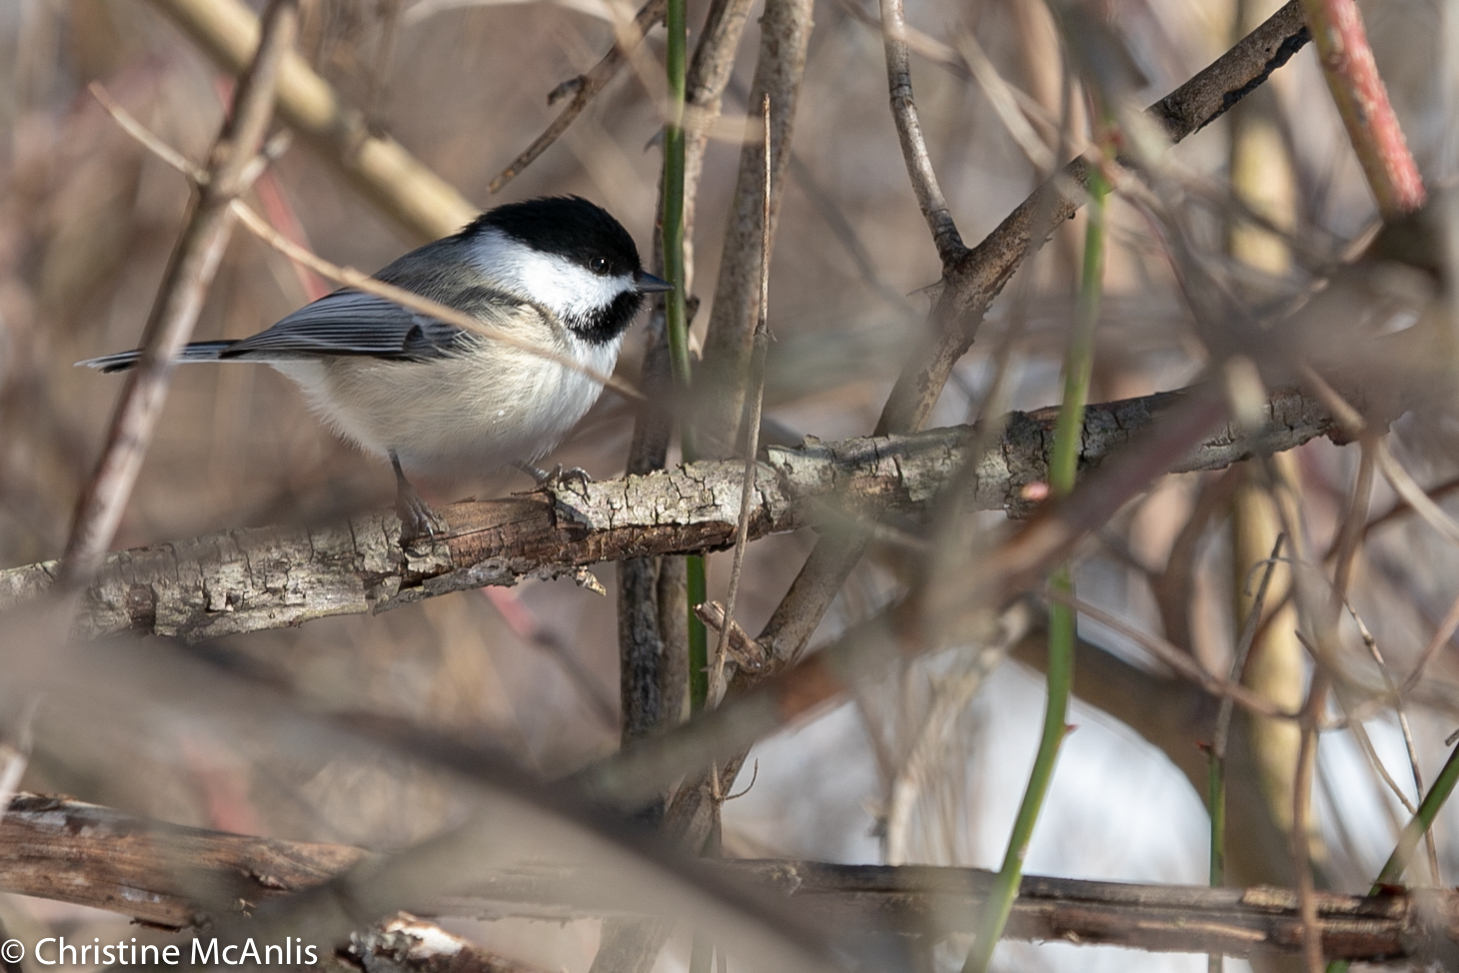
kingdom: Animalia
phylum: Chordata
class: Aves
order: Passeriformes
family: Paridae
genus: Poecile
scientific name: Poecile atricapillus
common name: Black-capped chickadee
